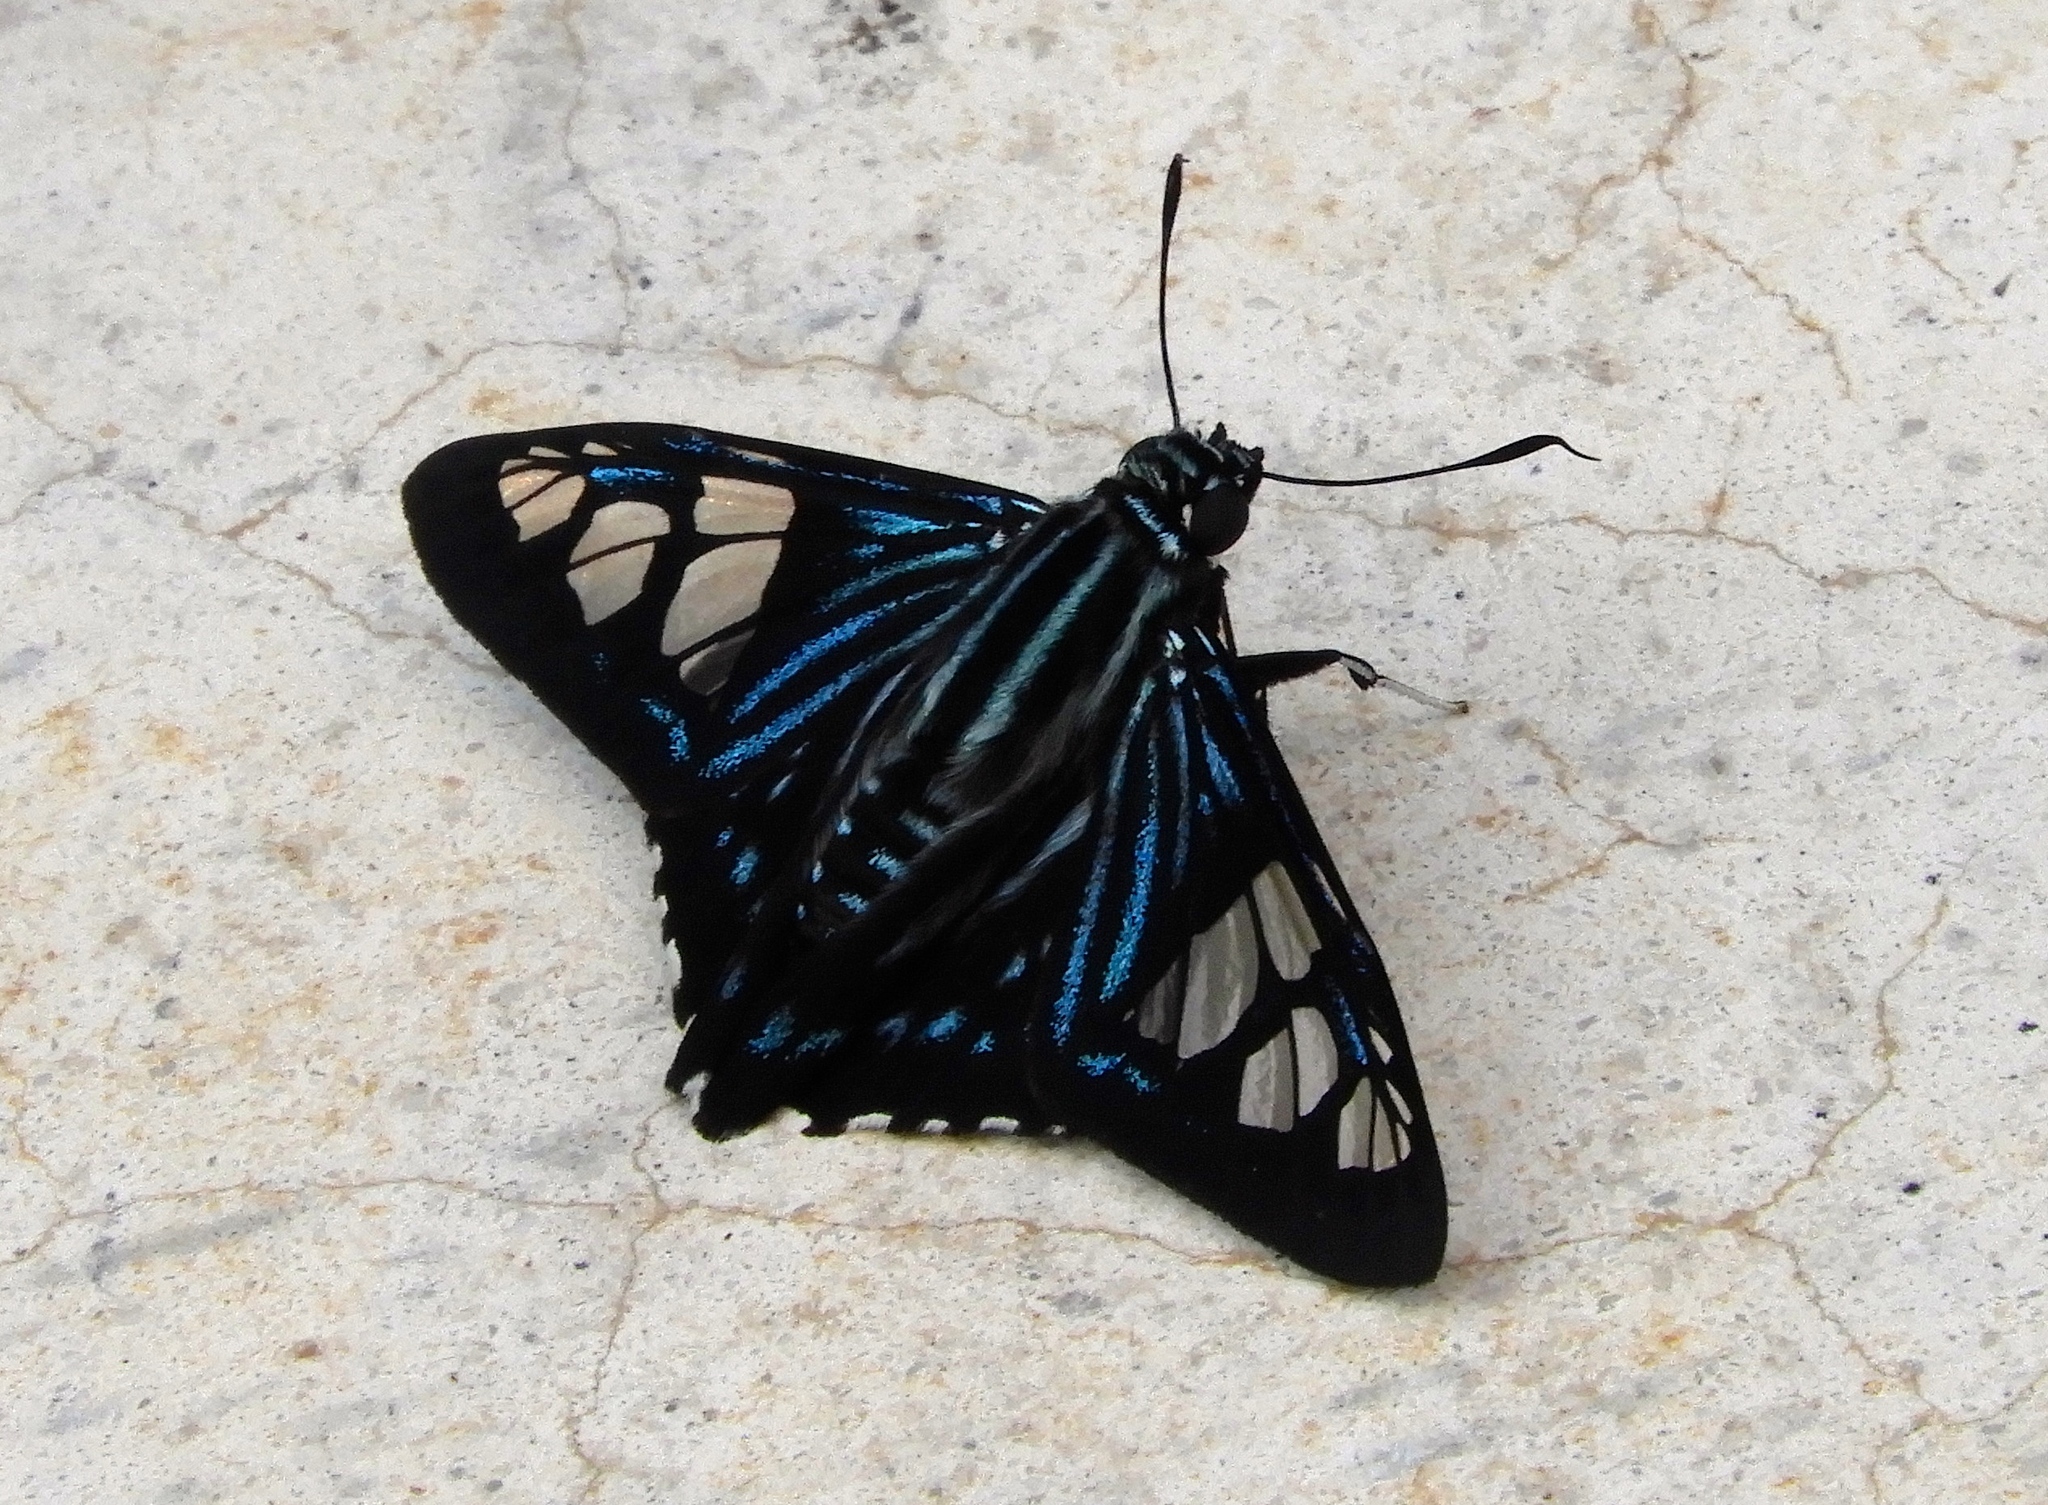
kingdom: Animalia
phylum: Arthropoda
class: Insecta
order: Lepidoptera
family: Hesperiidae
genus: Phocides
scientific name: Phocides pigmalion
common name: Mangrove skipper
